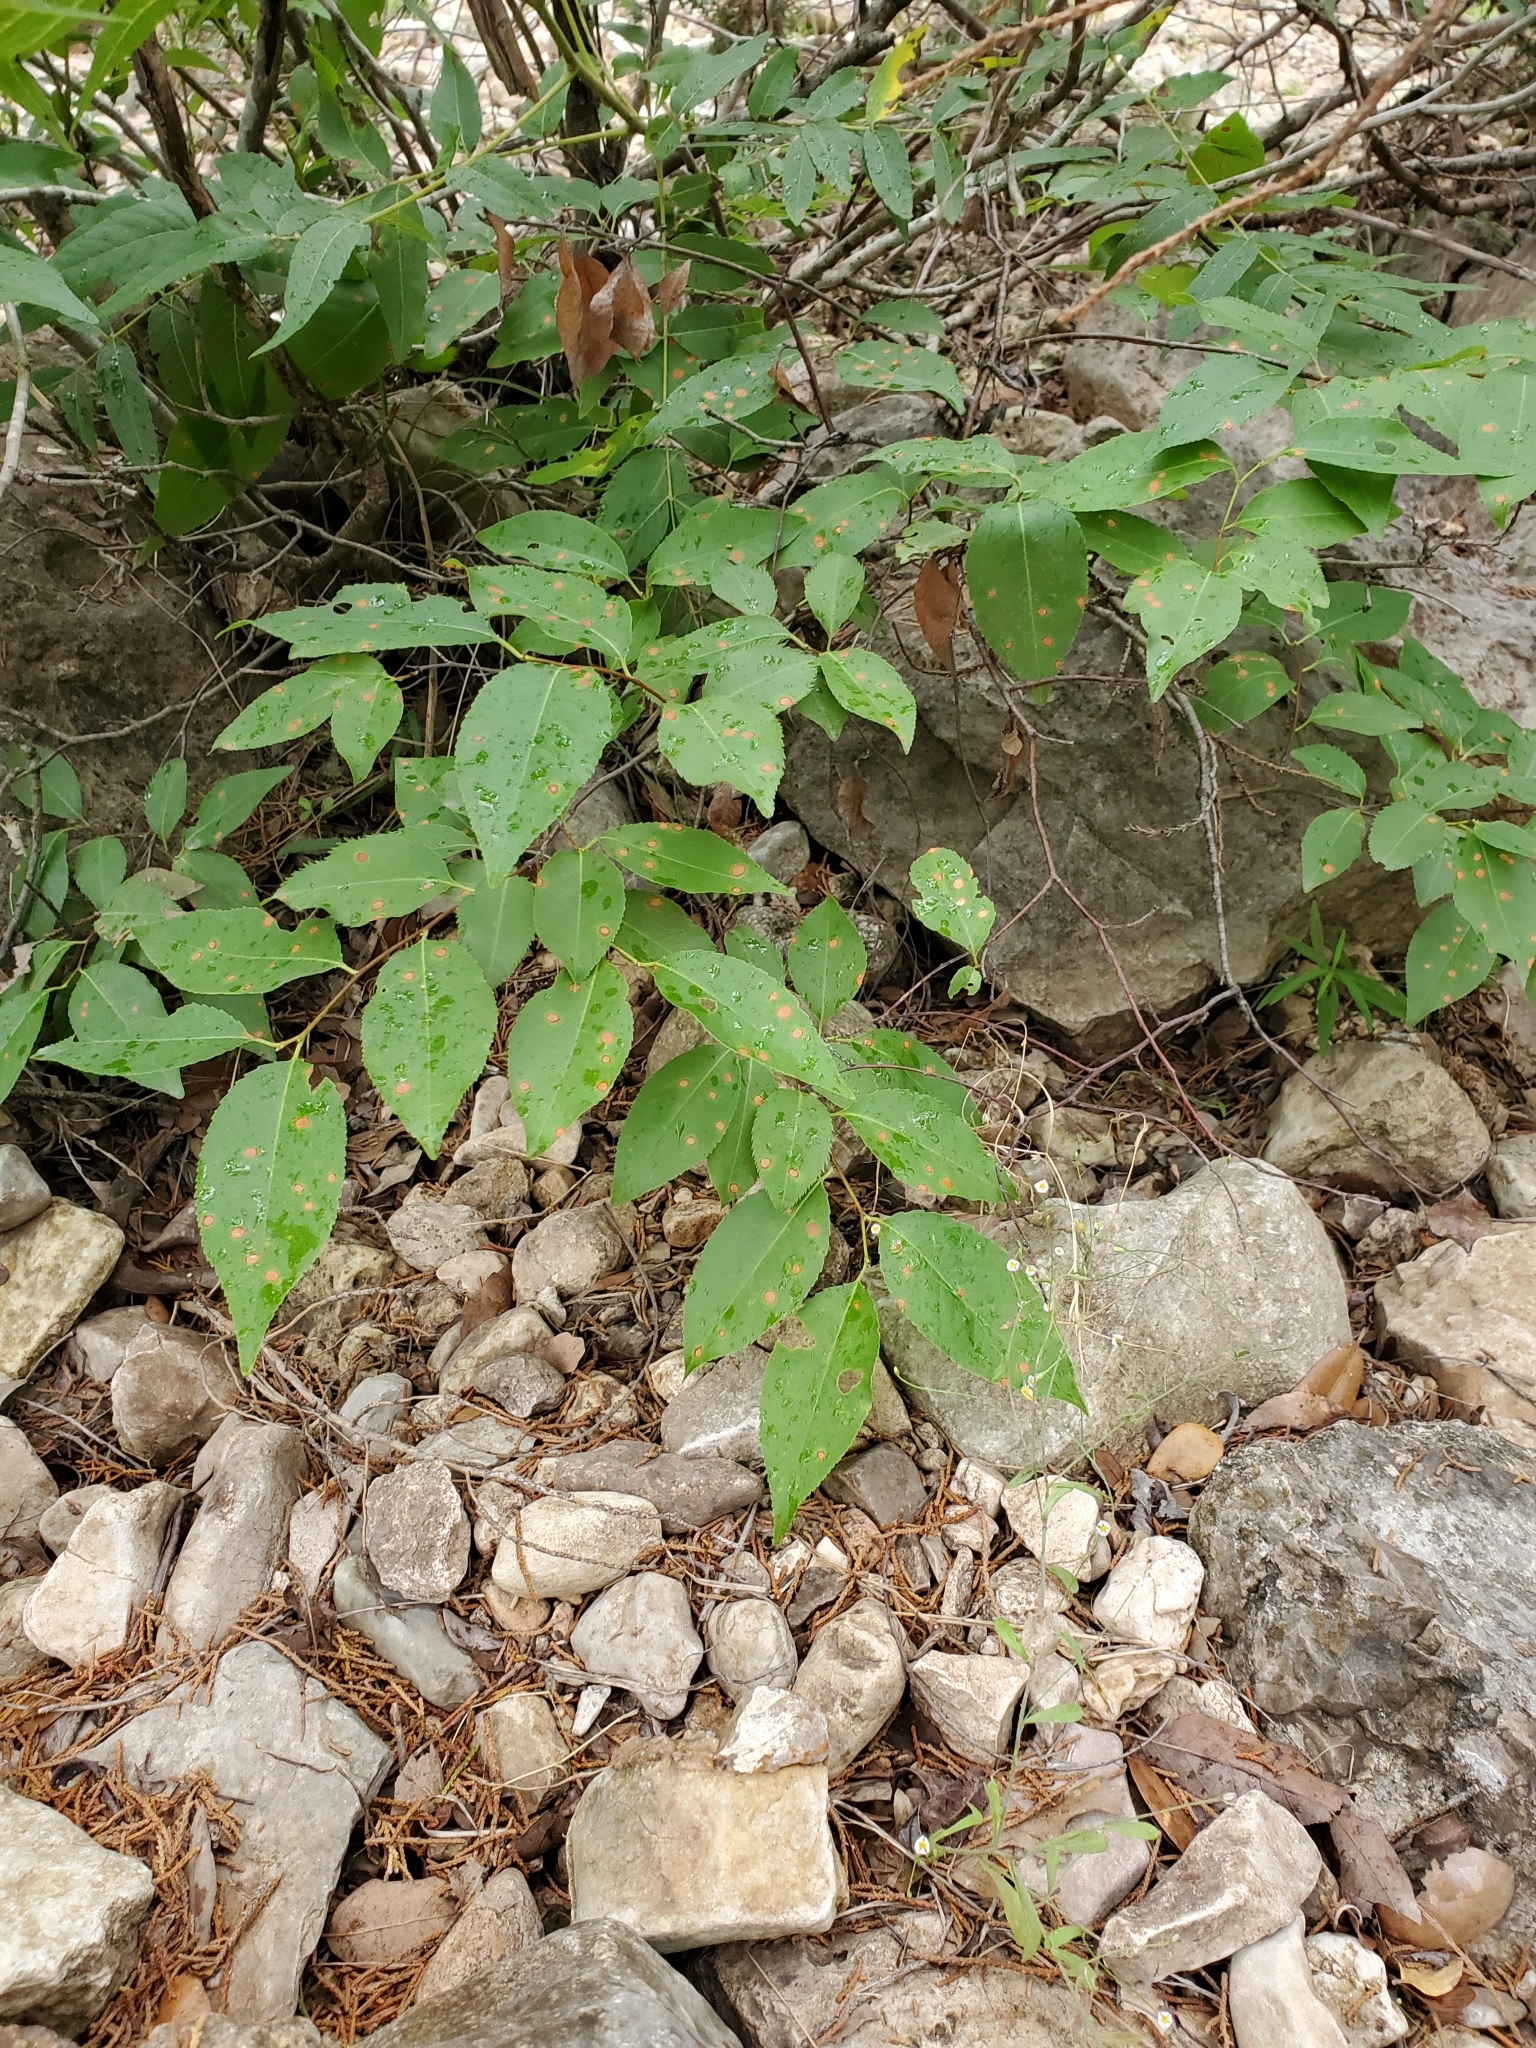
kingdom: Plantae
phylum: Tracheophyta
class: Magnoliopsida
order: Rosales
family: Rosaceae
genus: Prunus
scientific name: Prunus serotina
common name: Black cherry
